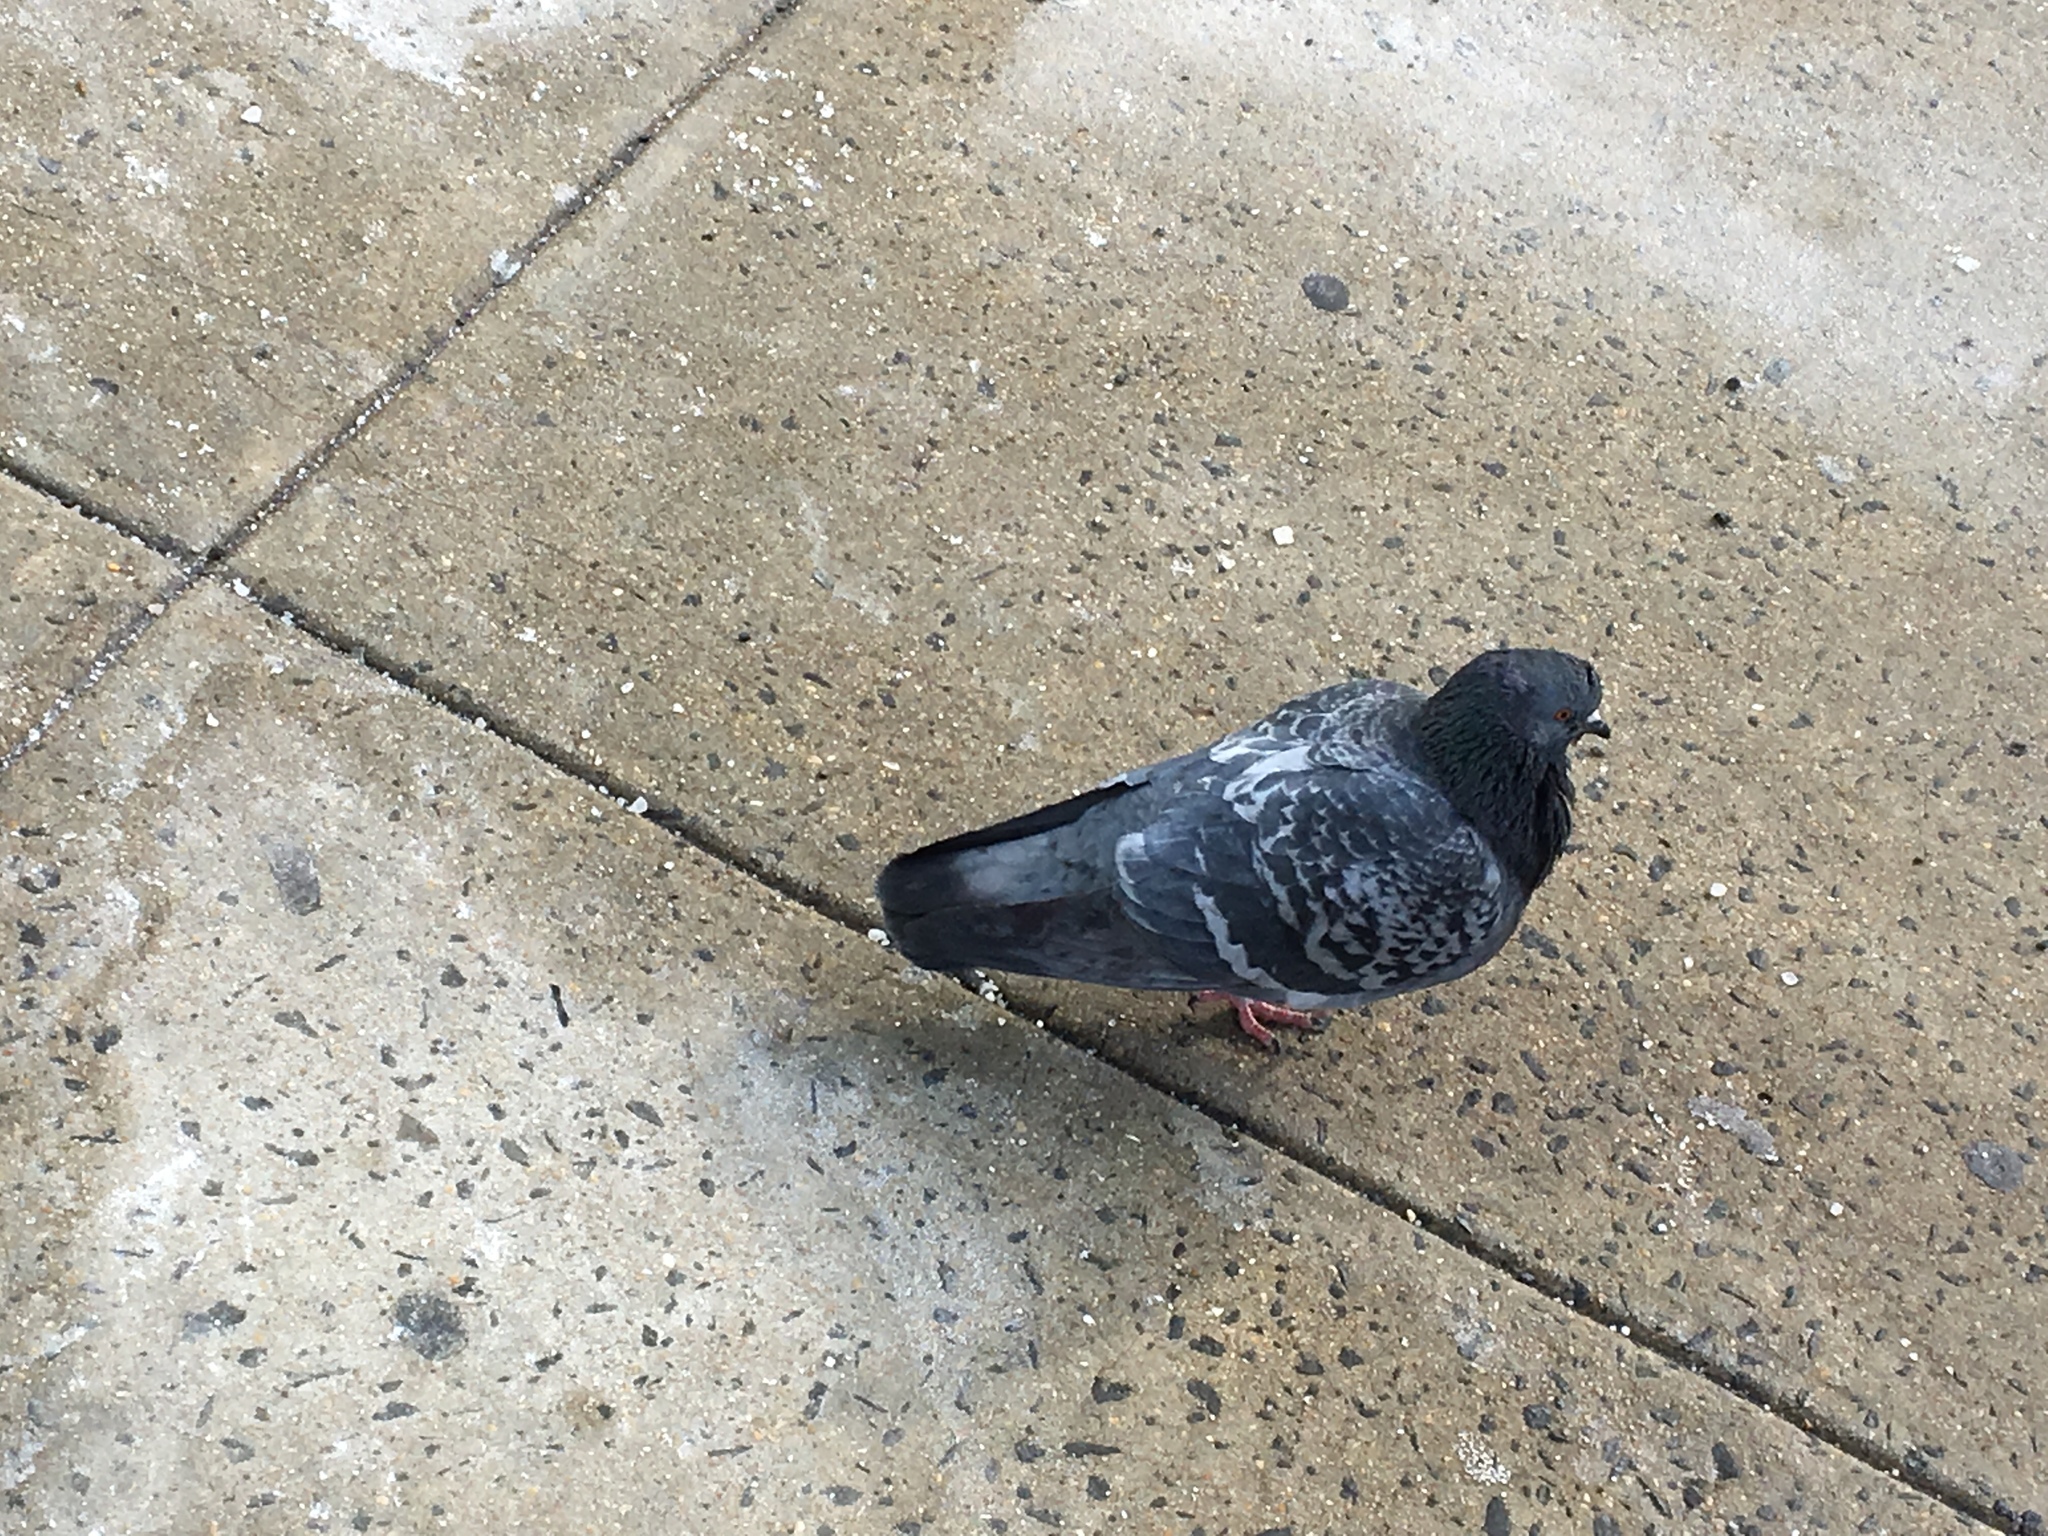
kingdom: Animalia
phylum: Chordata
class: Aves
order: Columbiformes
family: Columbidae
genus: Columba
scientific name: Columba livia
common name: Rock pigeon
